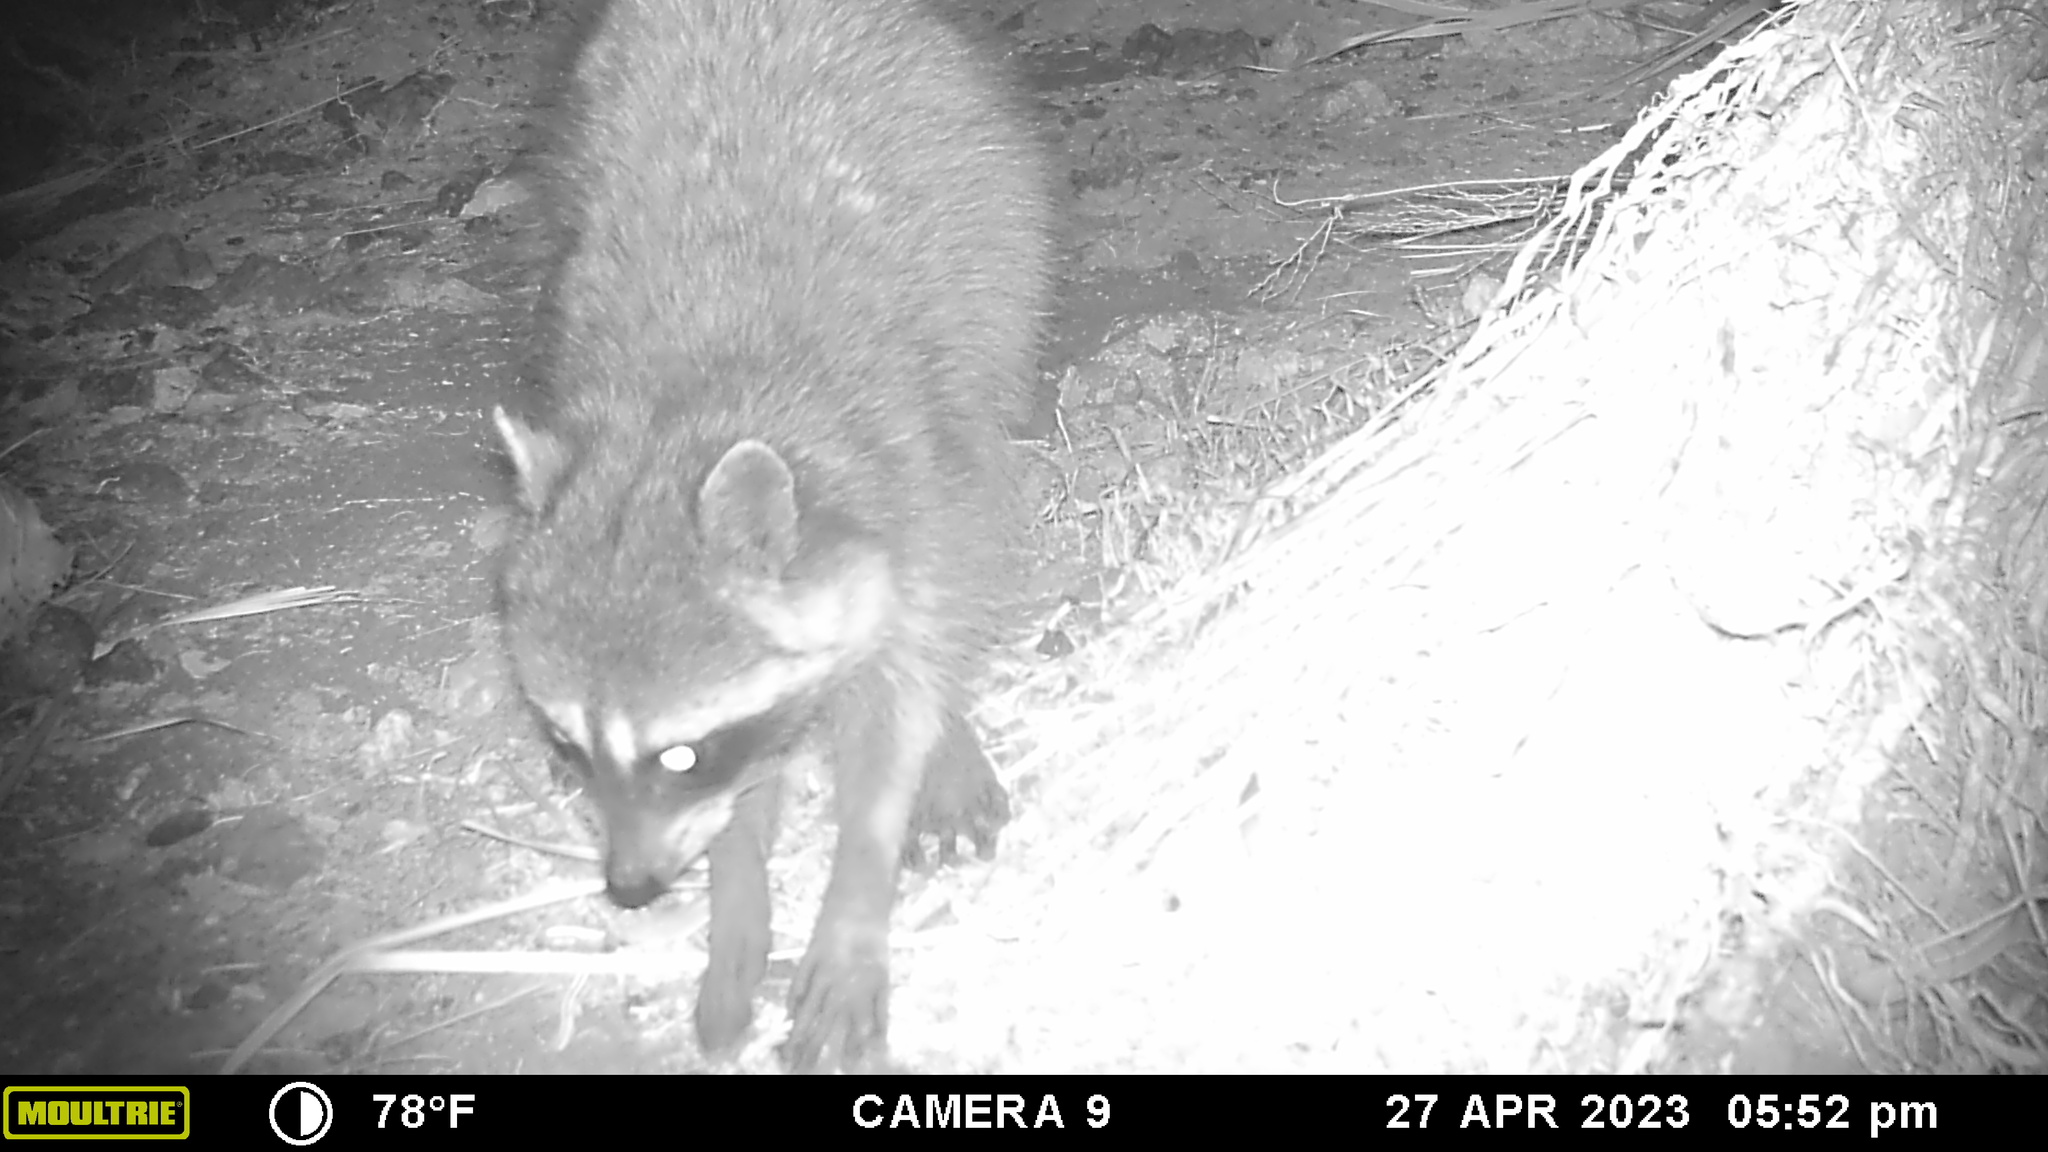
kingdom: Animalia
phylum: Chordata
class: Mammalia
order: Carnivora
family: Procyonidae
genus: Procyon
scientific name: Procyon lotor
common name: Raccoon
